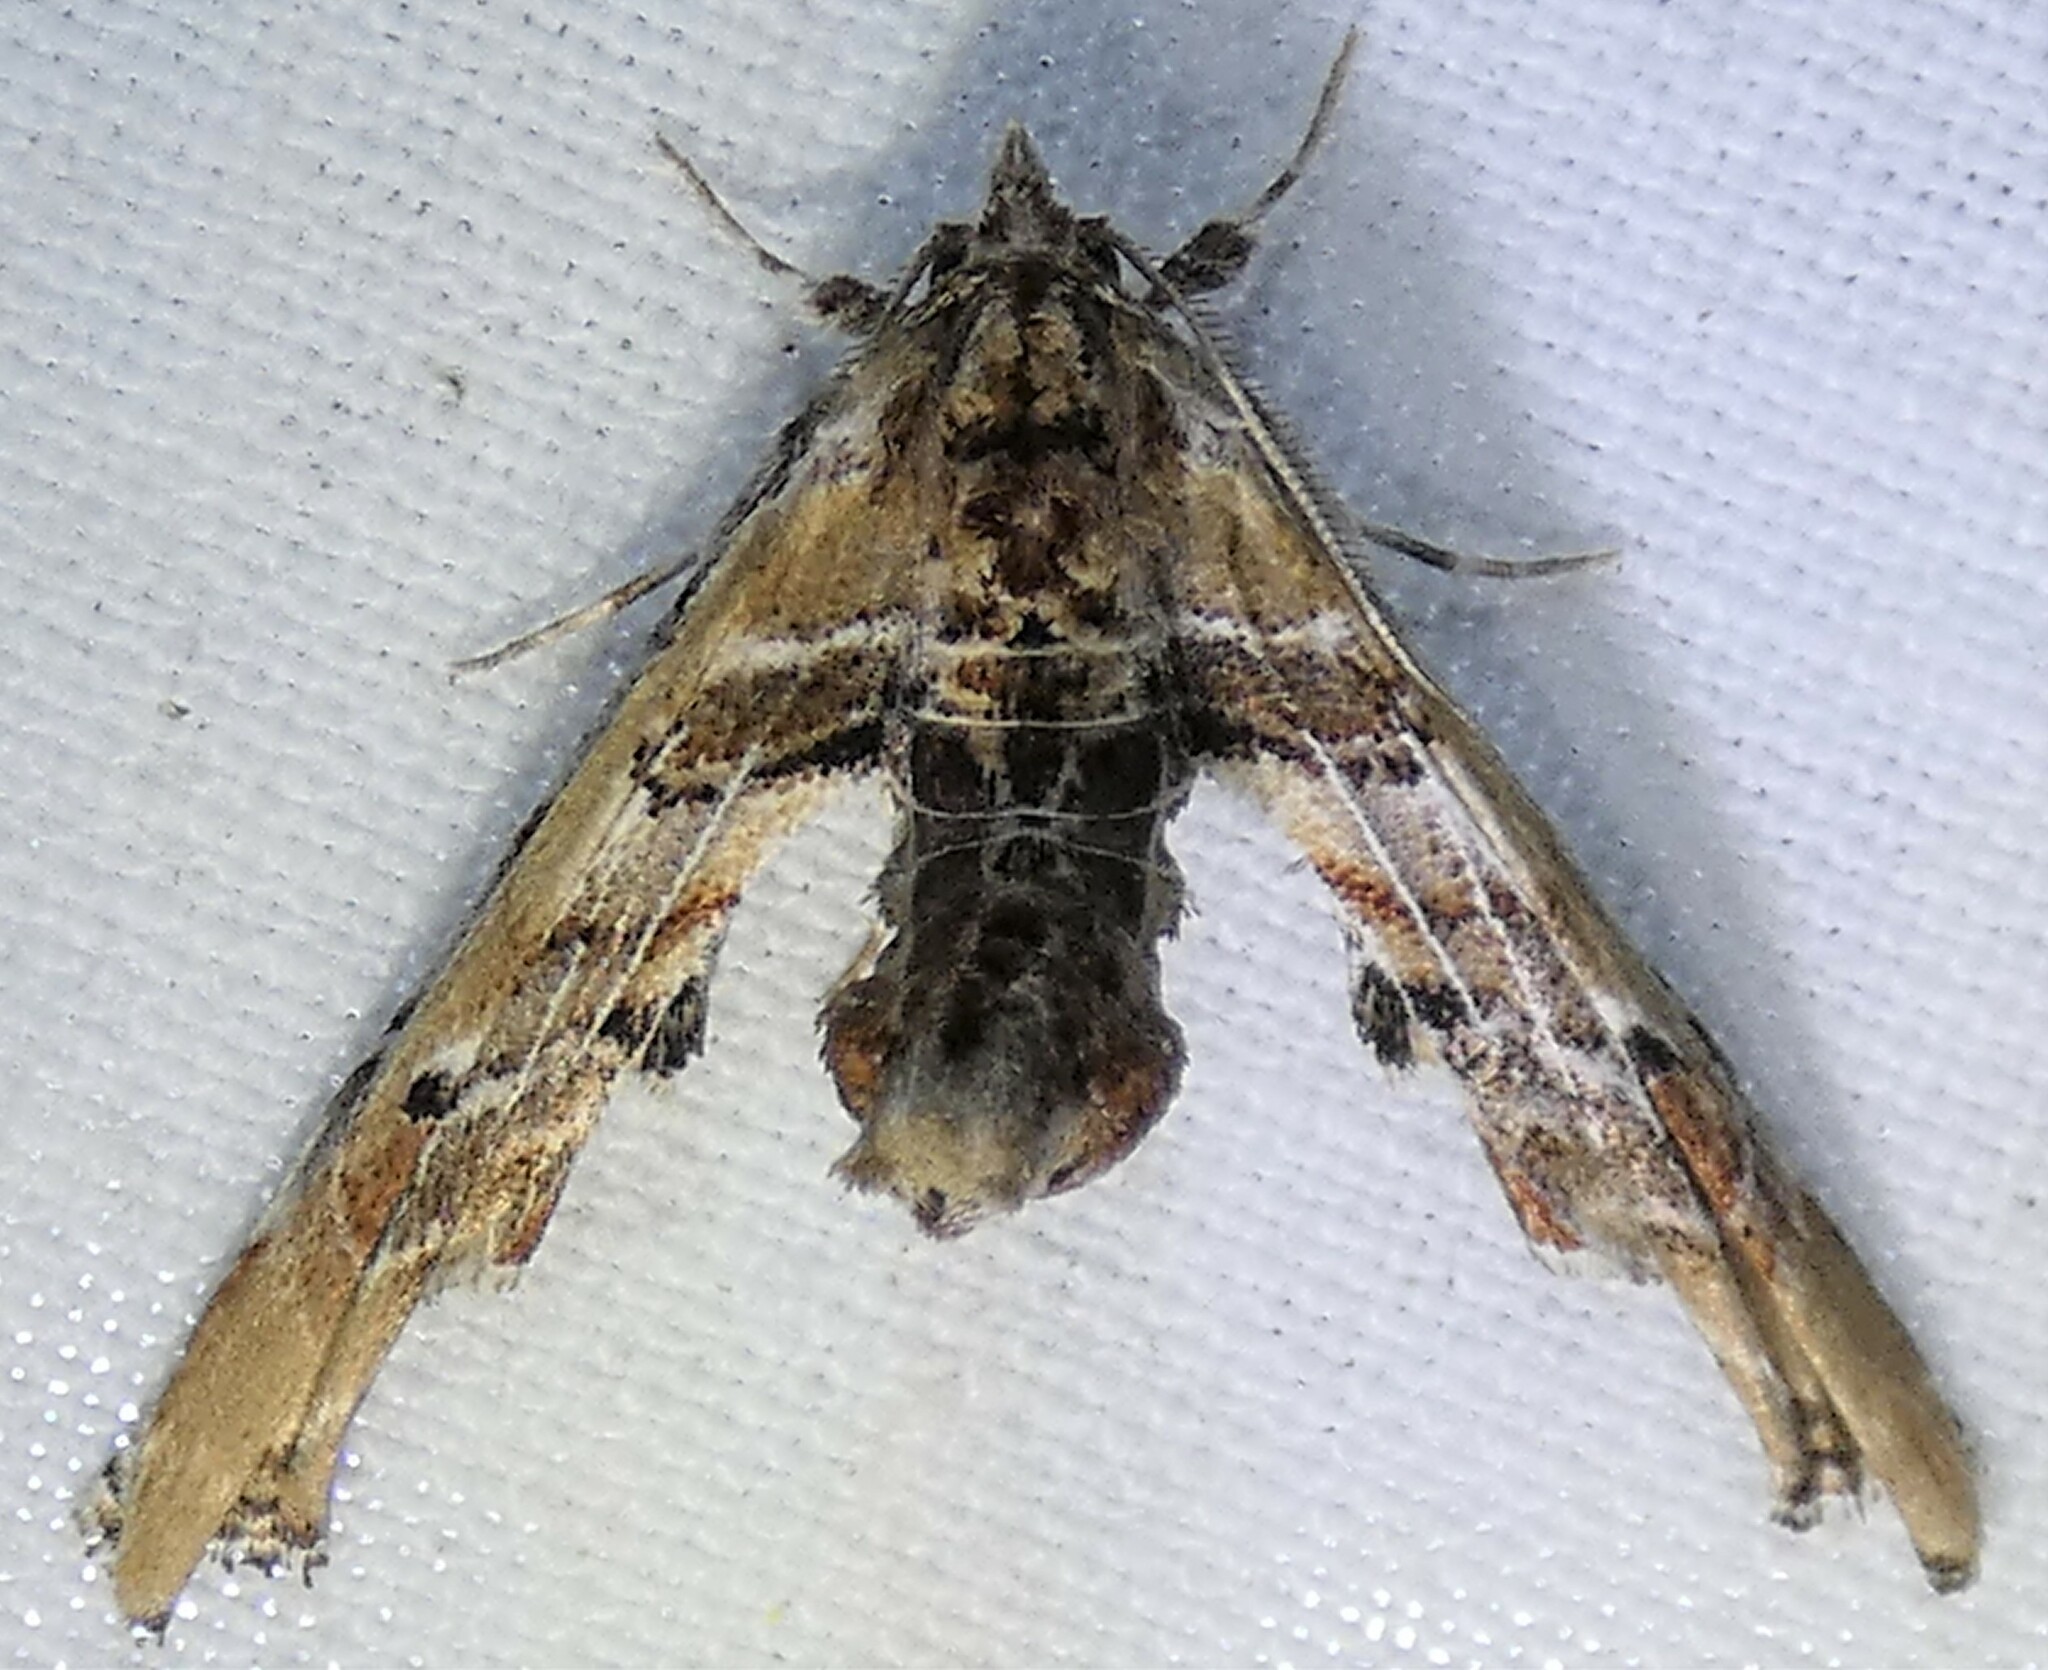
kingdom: Animalia
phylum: Arthropoda
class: Insecta
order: Lepidoptera
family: Euteliidae
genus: Marathyssa
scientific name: Marathyssa basalis
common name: Light marathyssa moth
